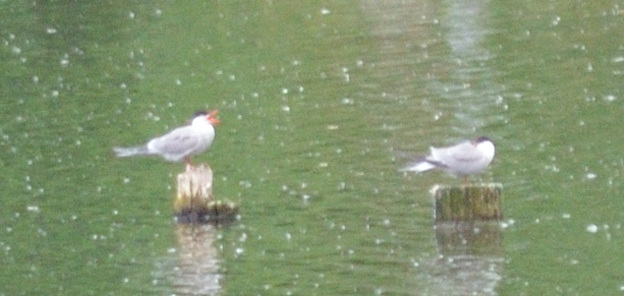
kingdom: Animalia
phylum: Chordata
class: Aves
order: Charadriiformes
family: Laridae
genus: Sterna
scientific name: Sterna hirundo
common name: Common tern
